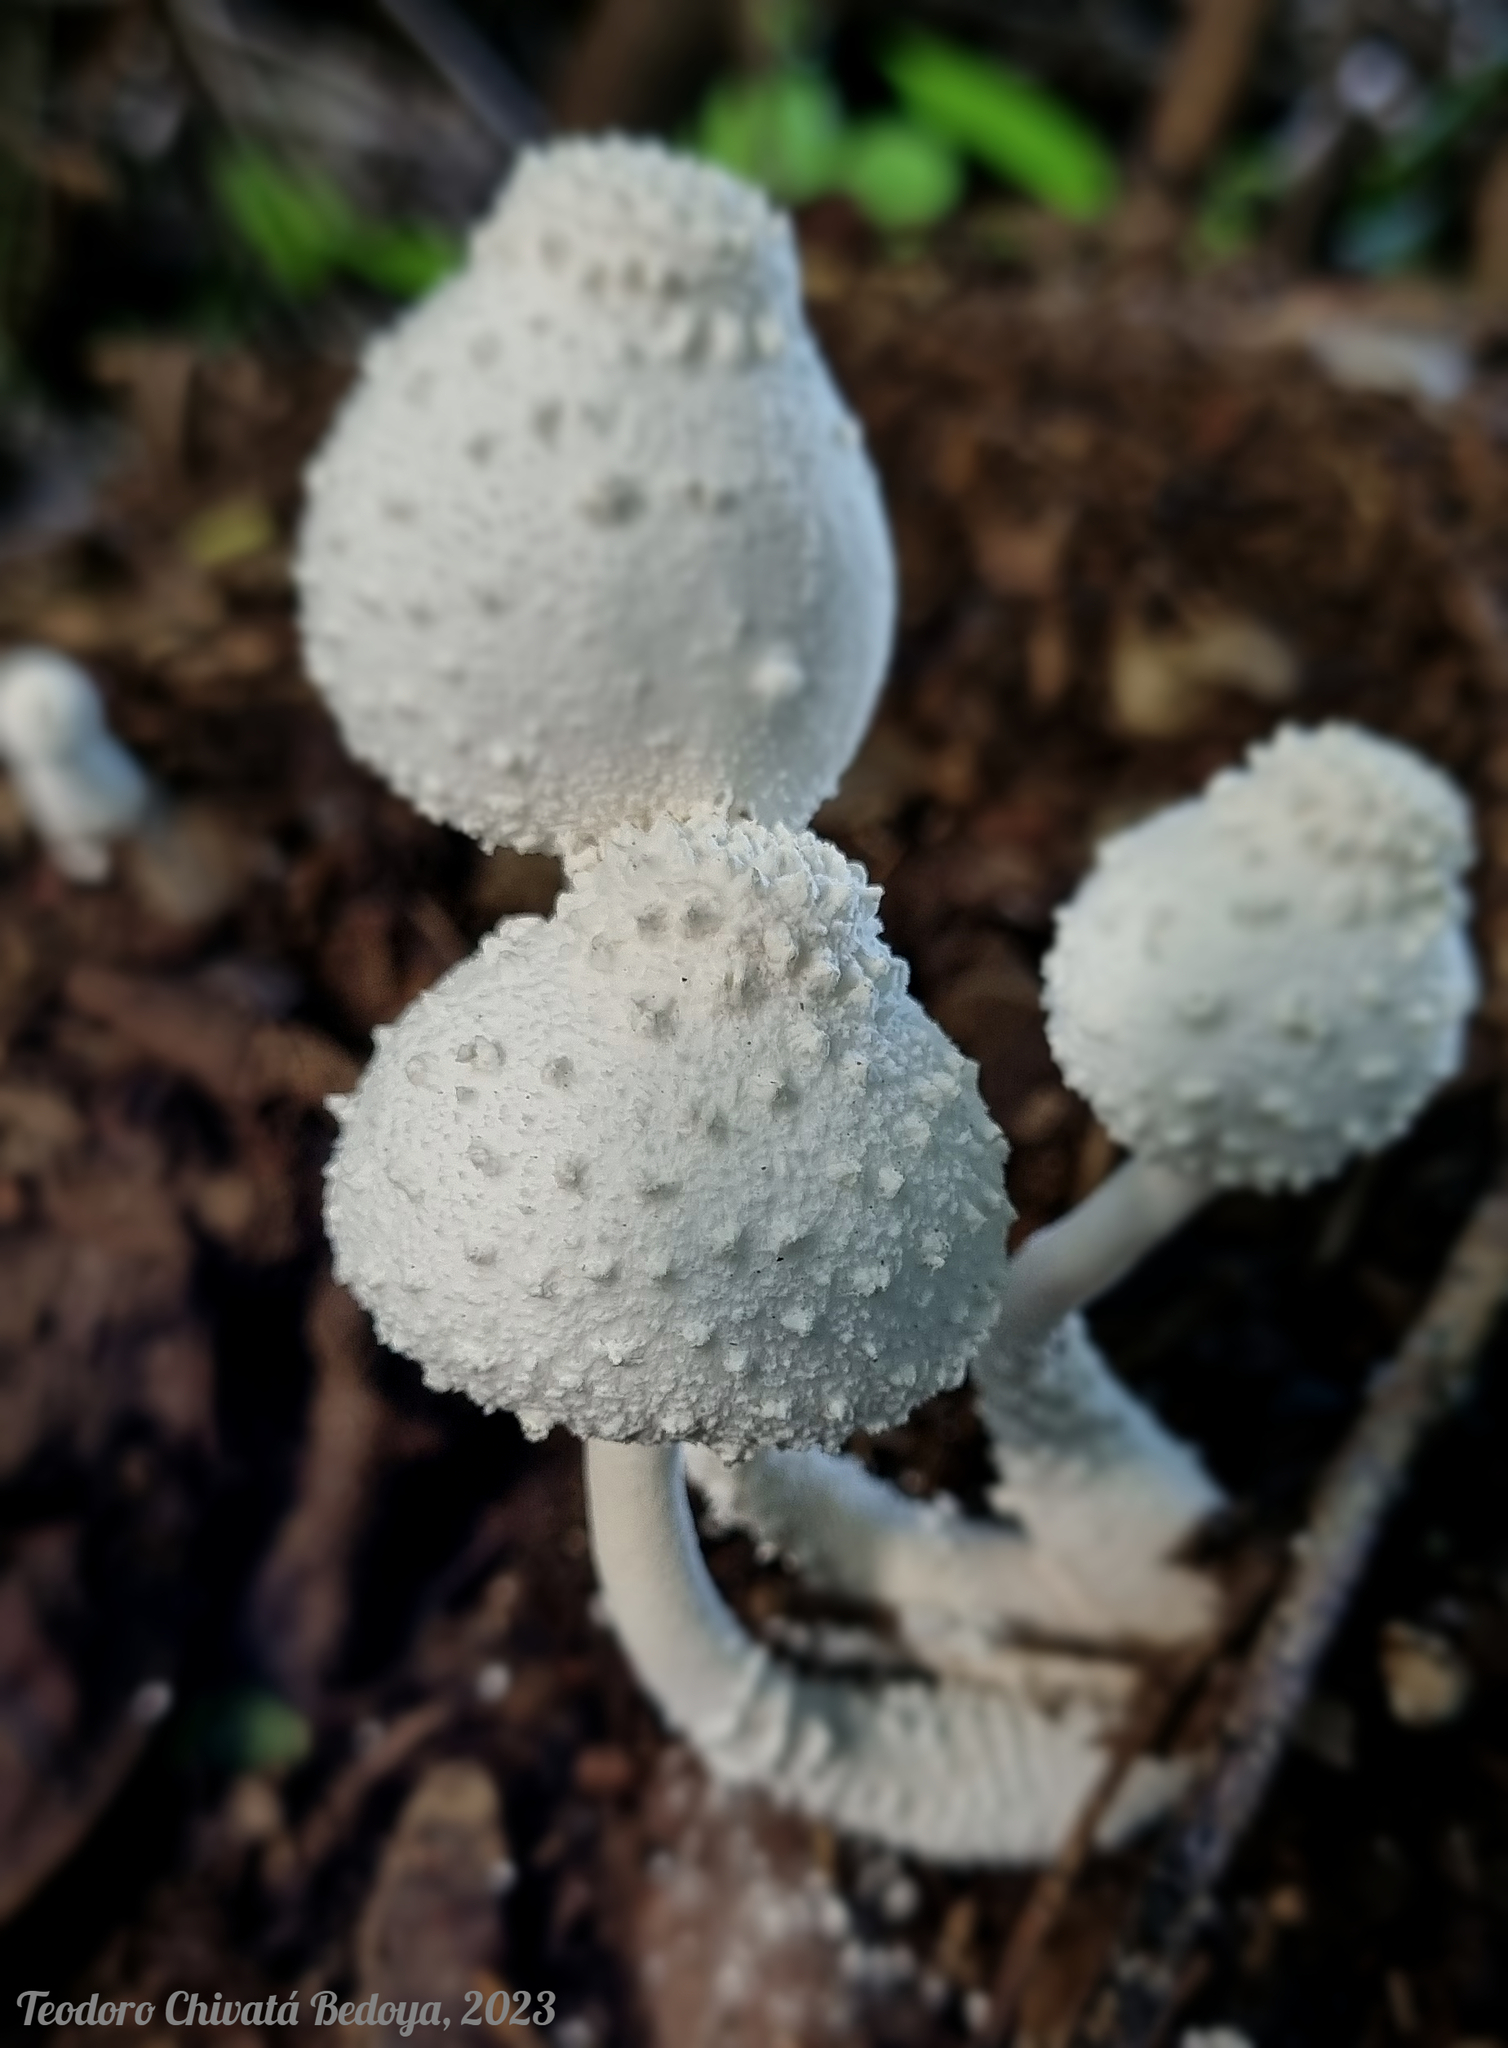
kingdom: Fungi
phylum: Basidiomycota
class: Agaricomycetes
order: Agaricales
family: Agaricaceae
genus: Leucocoprinus
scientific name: Leucocoprinus cretaceus
